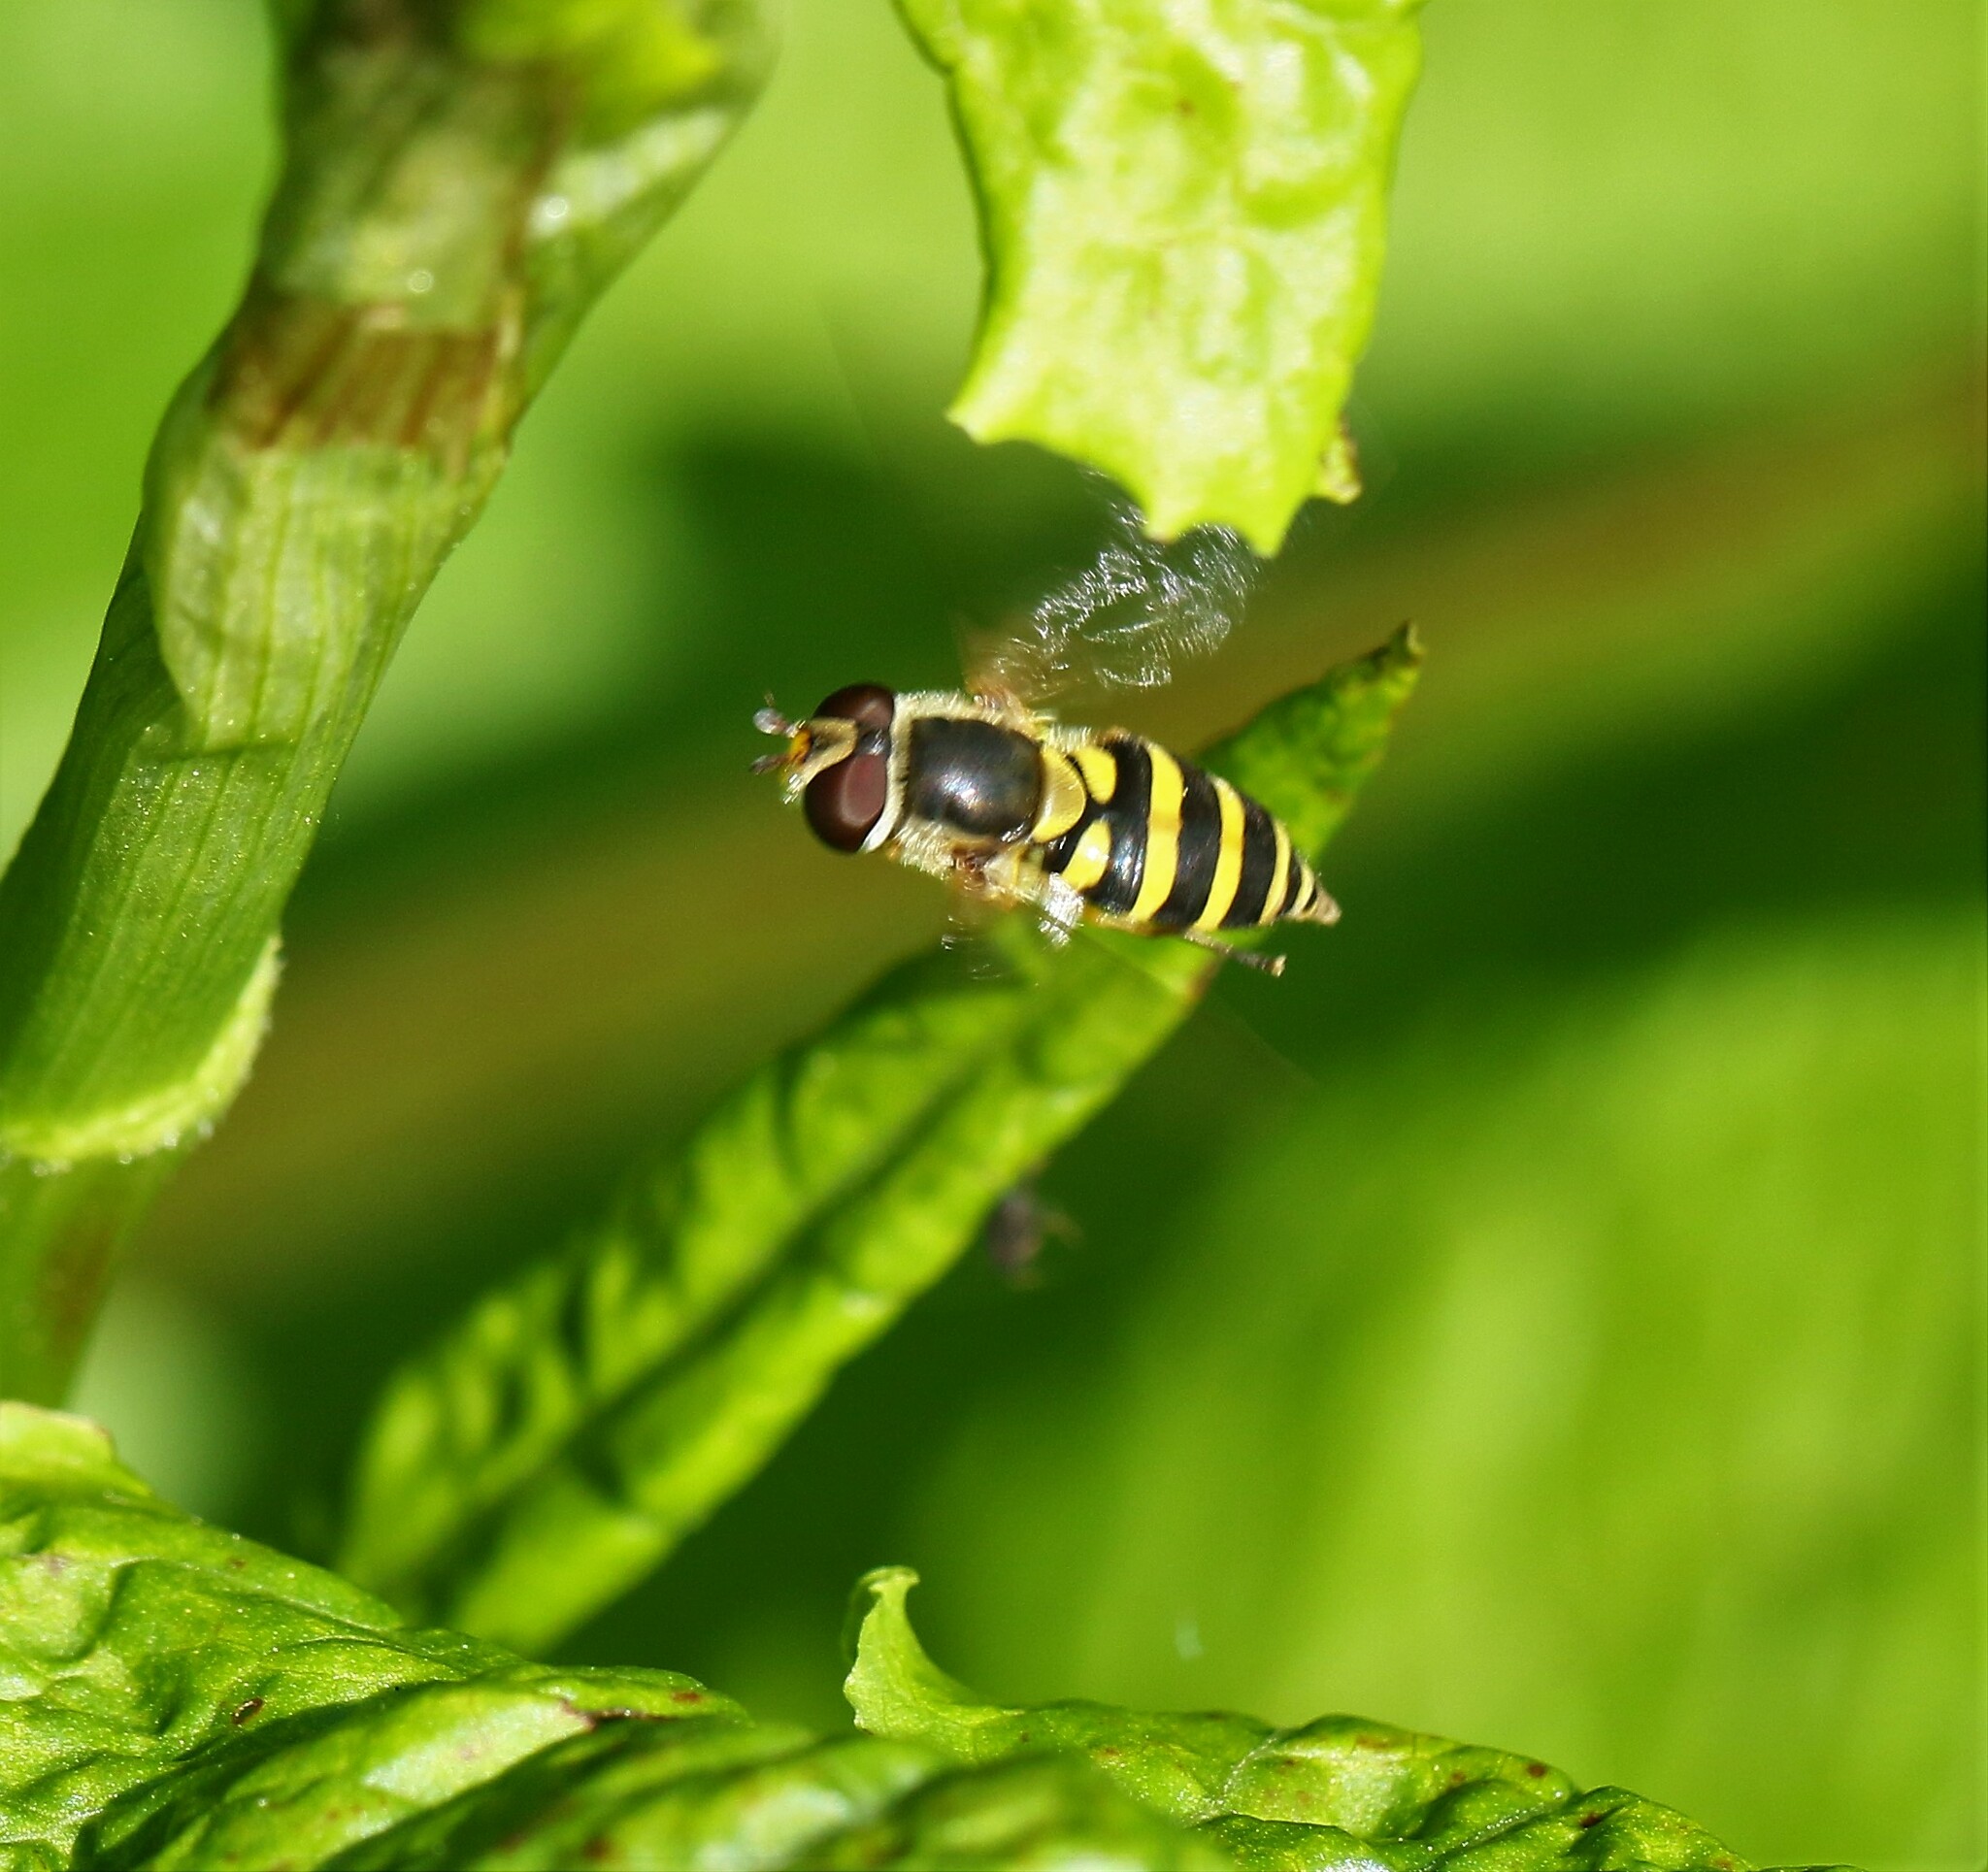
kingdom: Animalia
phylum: Arthropoda
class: Insecta
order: Diptera
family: Syrphidae
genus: Syrphus
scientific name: Syrphus
